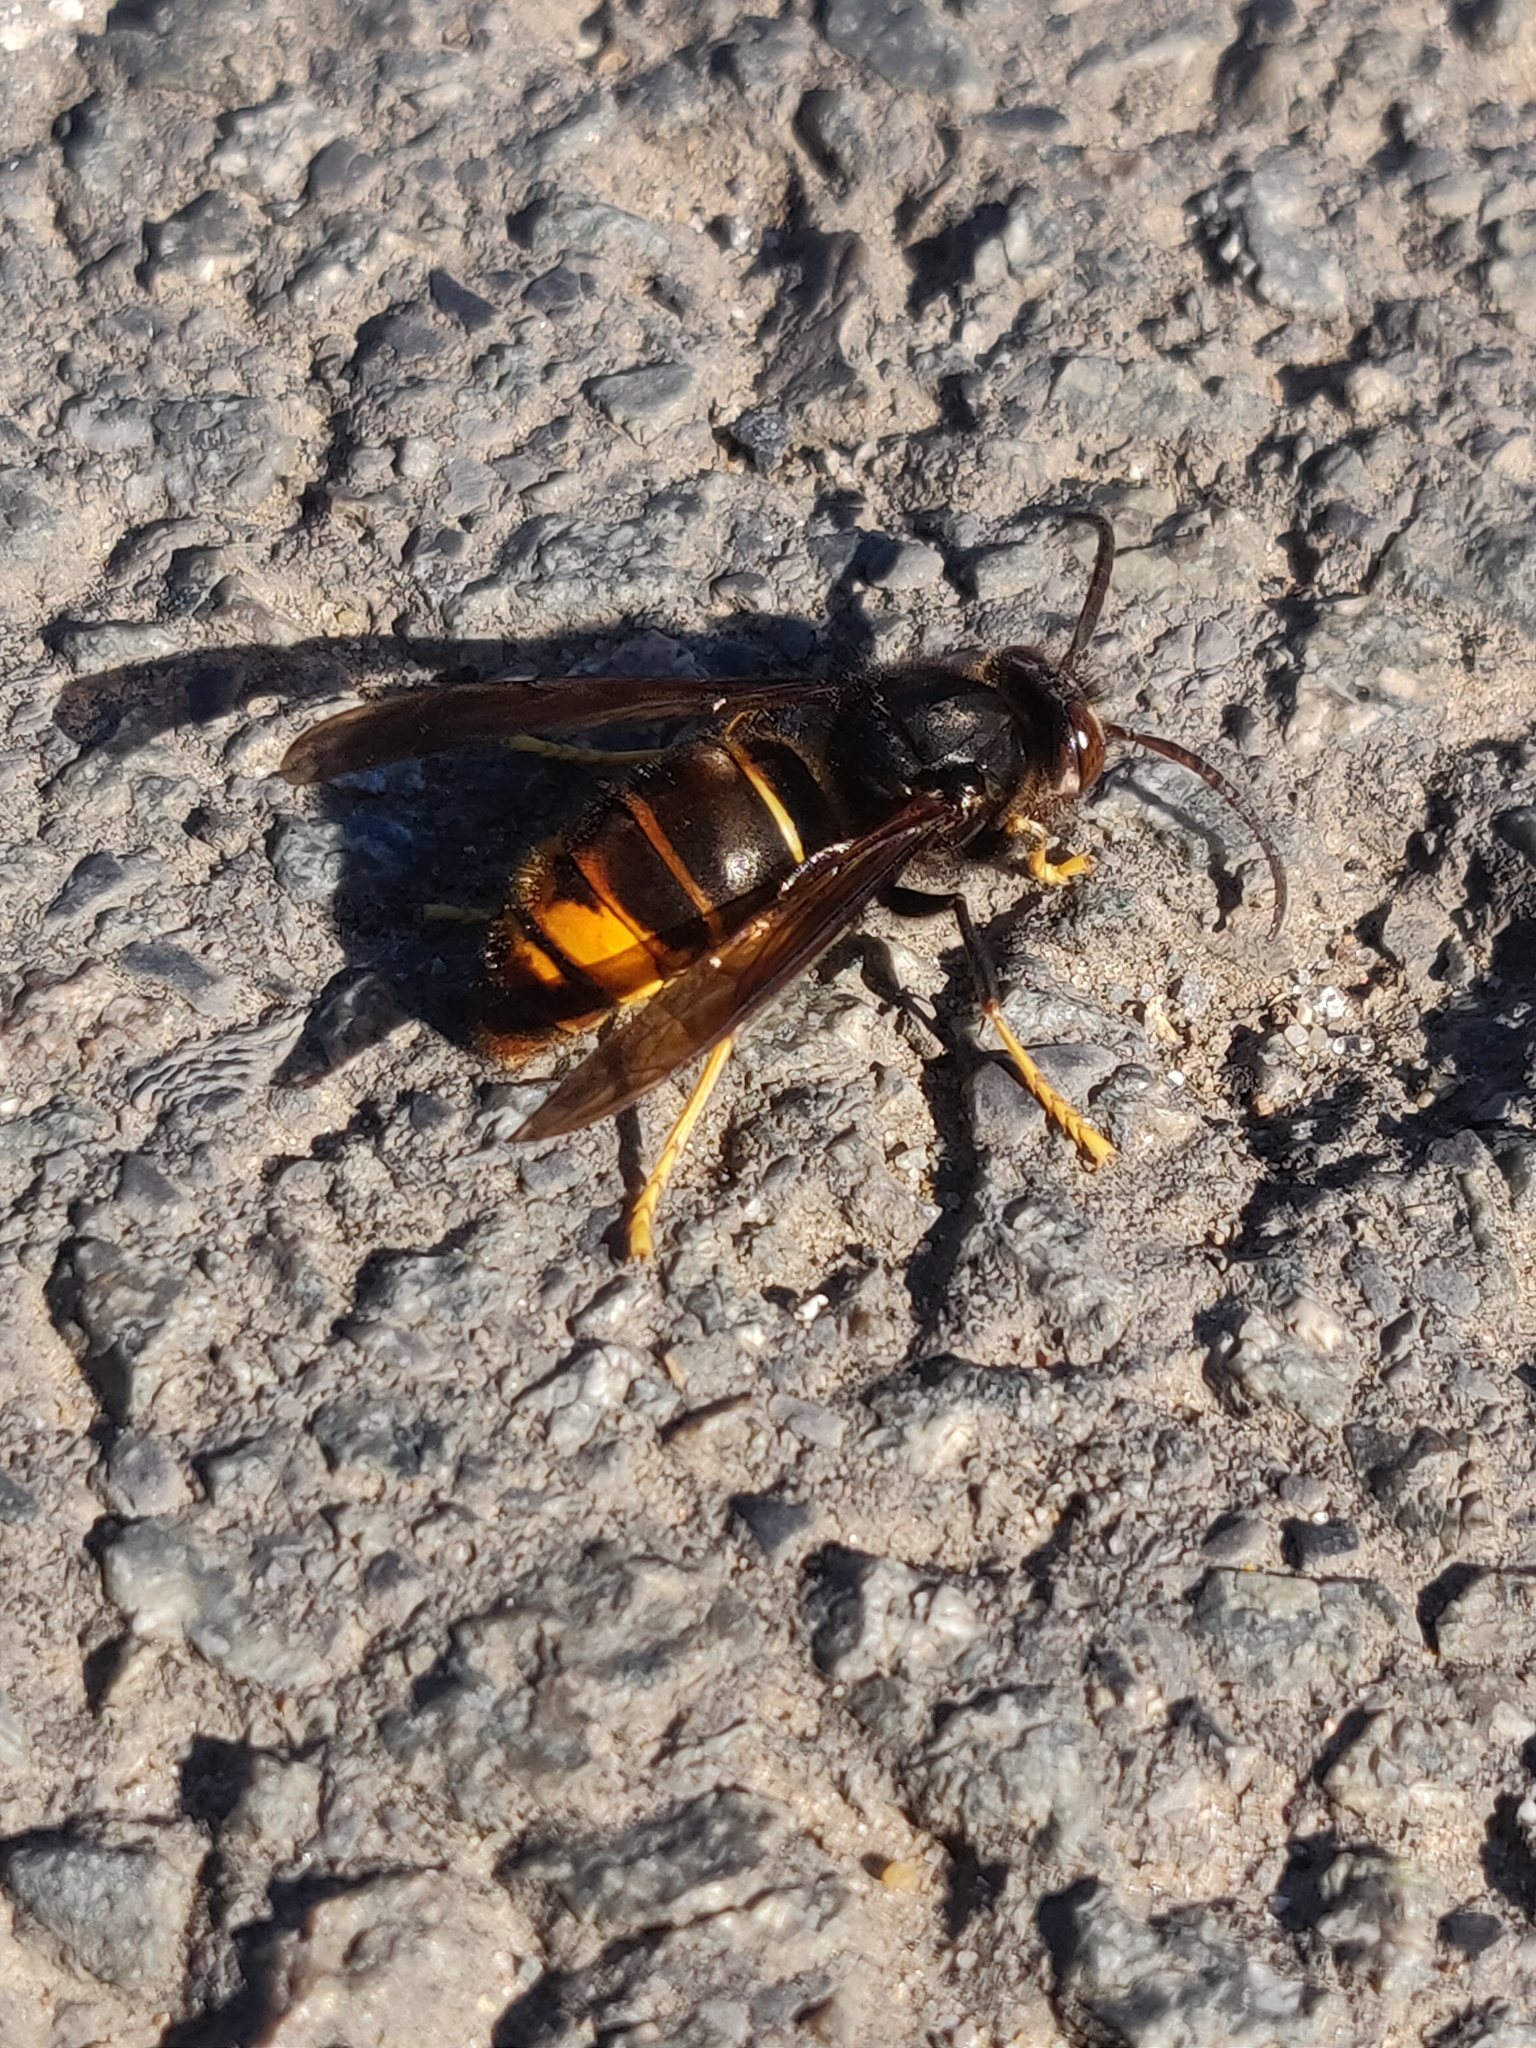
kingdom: Animalia
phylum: Arthropoda
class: Insecta
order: Hymenoptera
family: Vespidae
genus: Vespa
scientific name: Vespa velutina
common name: Asian hornet
